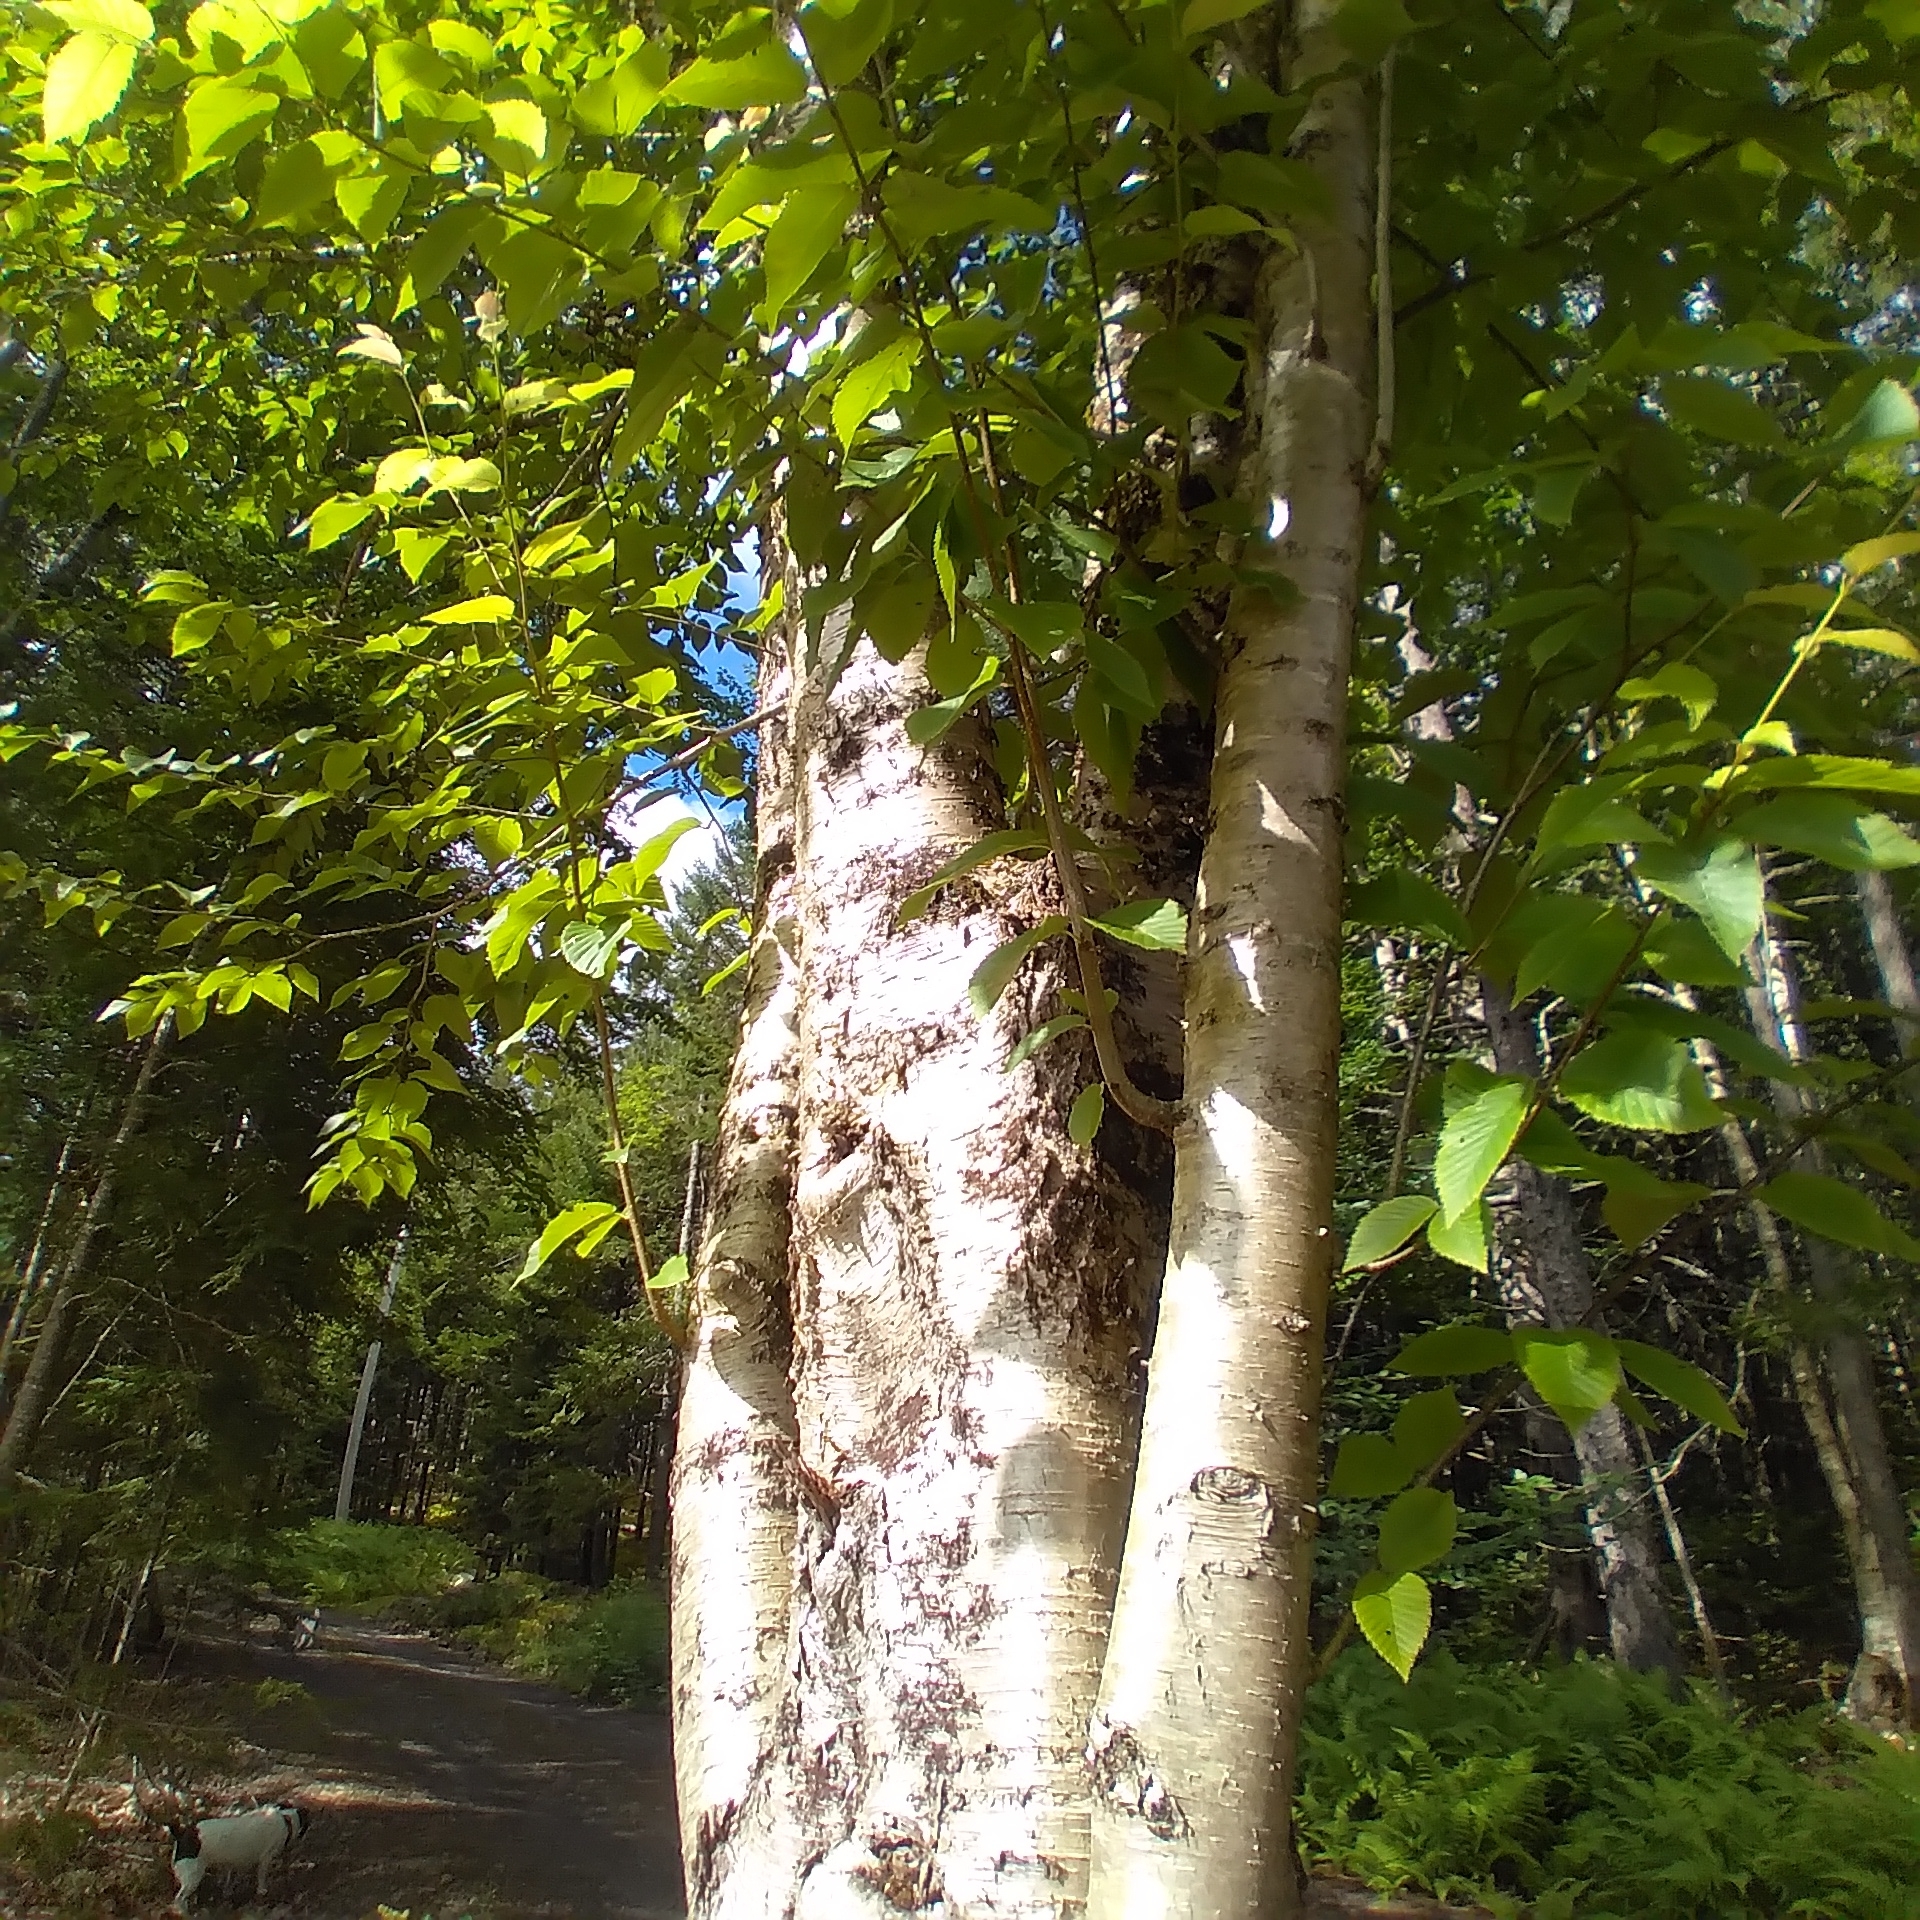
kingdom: Plantae
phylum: Tracheophyta
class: Magnoliopsida
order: Fagales
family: Betulaceae
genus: Betula
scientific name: Betula alleghaniensis
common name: Yellow birch
